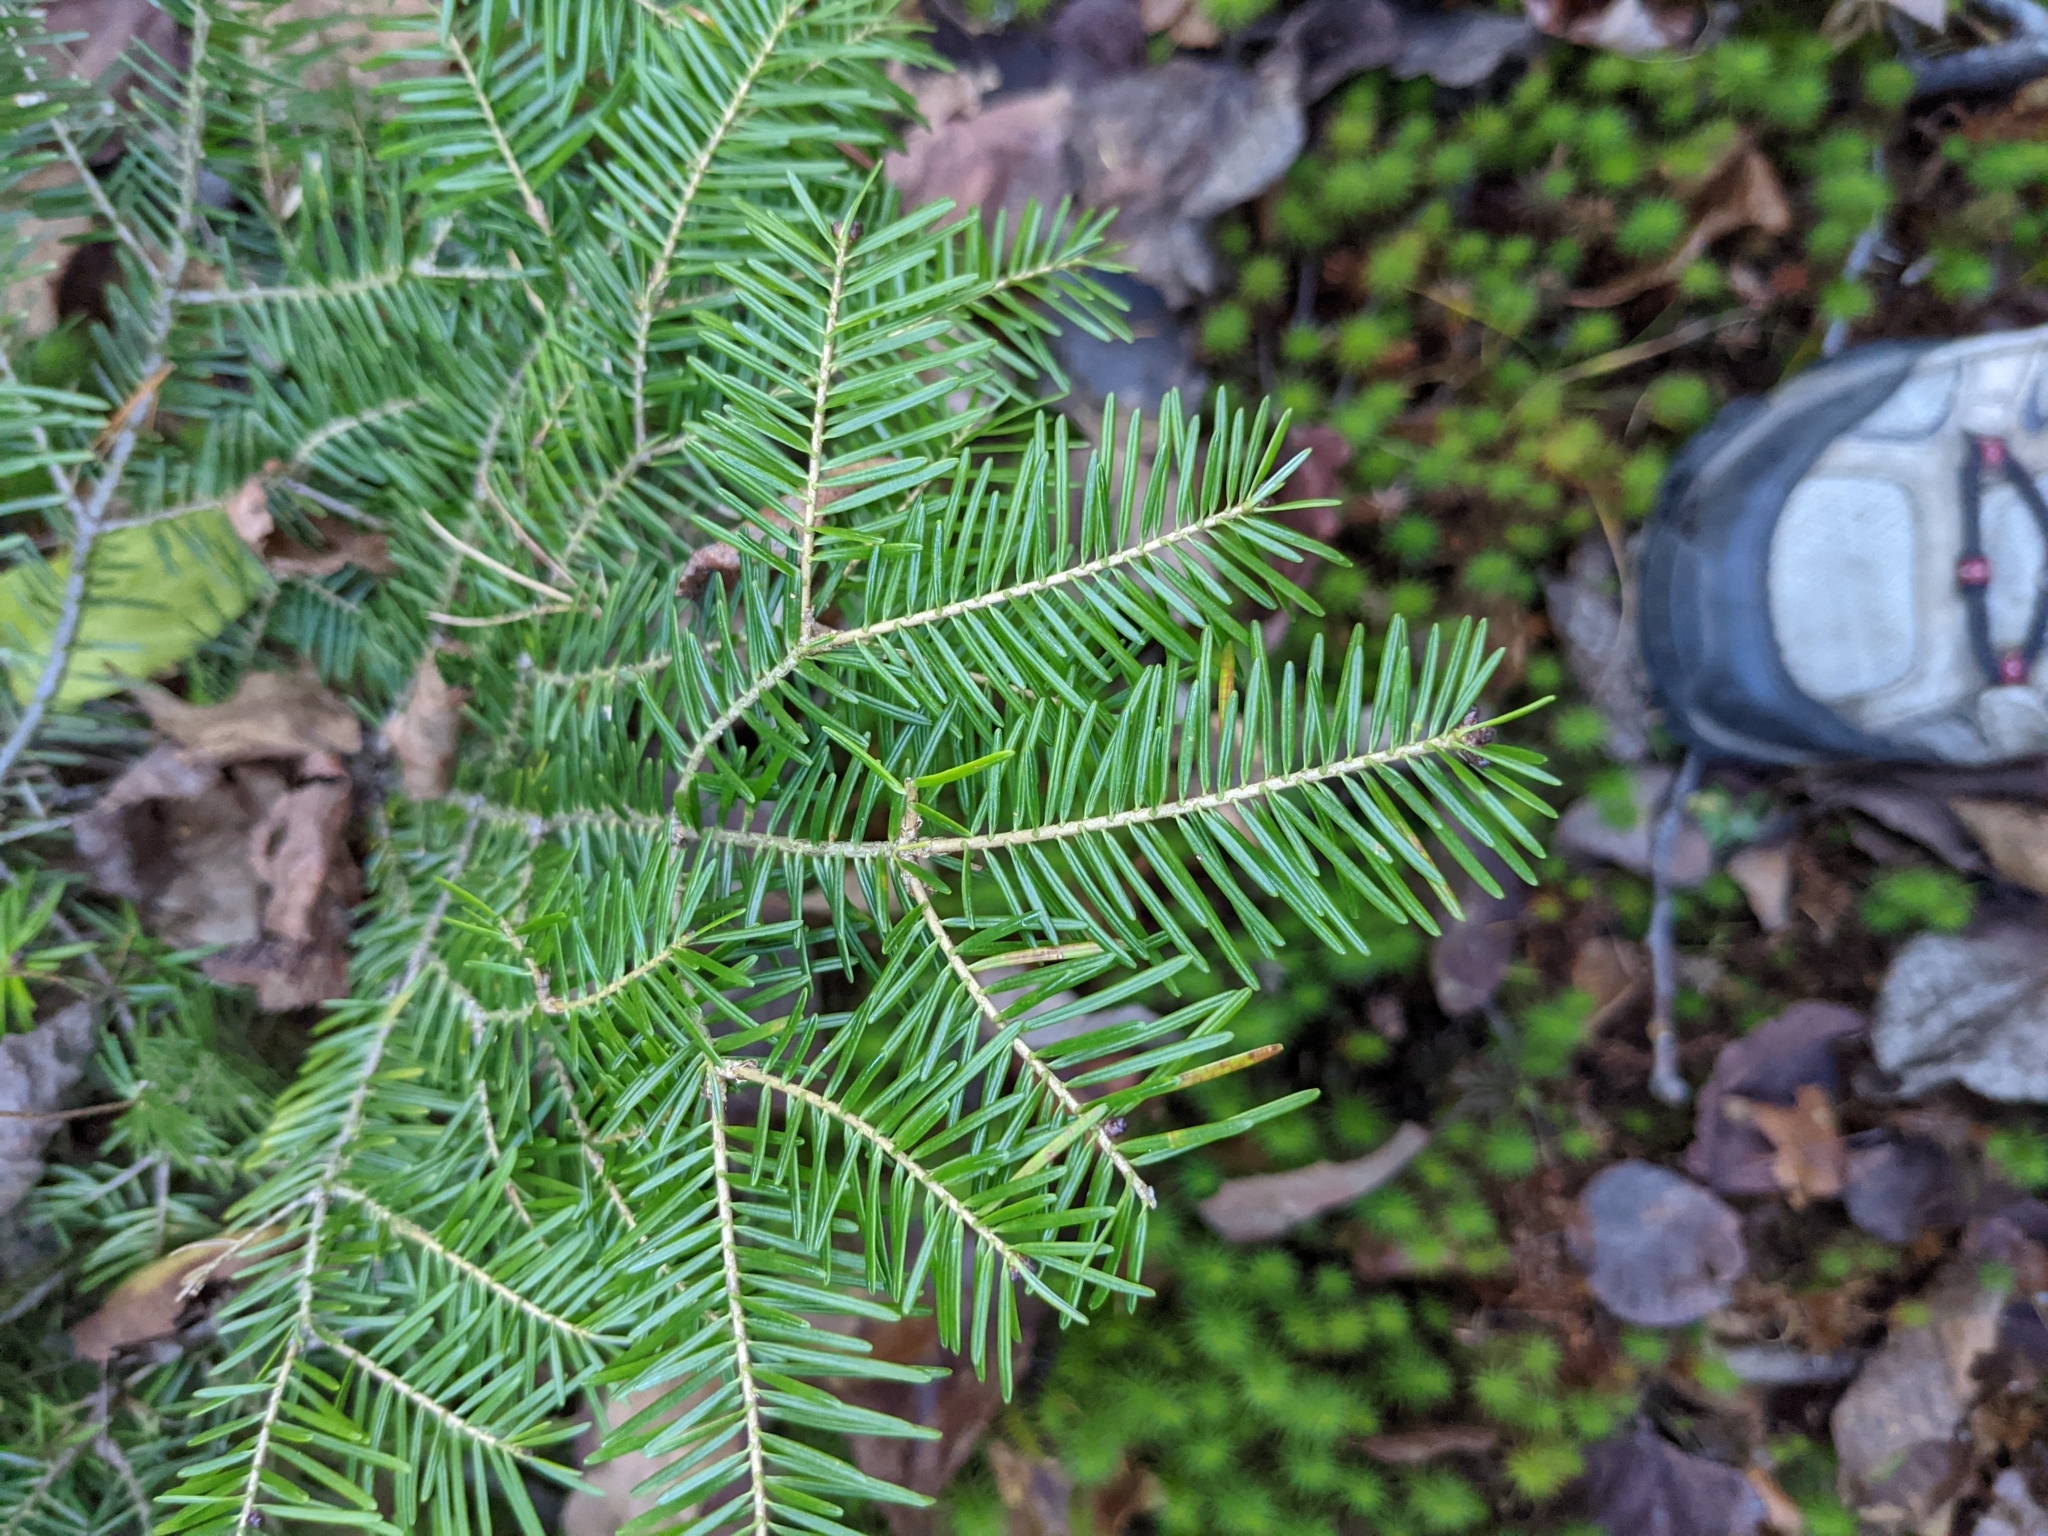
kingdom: Plantae
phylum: Tracheophyta
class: Pinopsida
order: Pinales
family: Pinaceae
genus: Abies
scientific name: Abies balsamea
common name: Balsam fir
